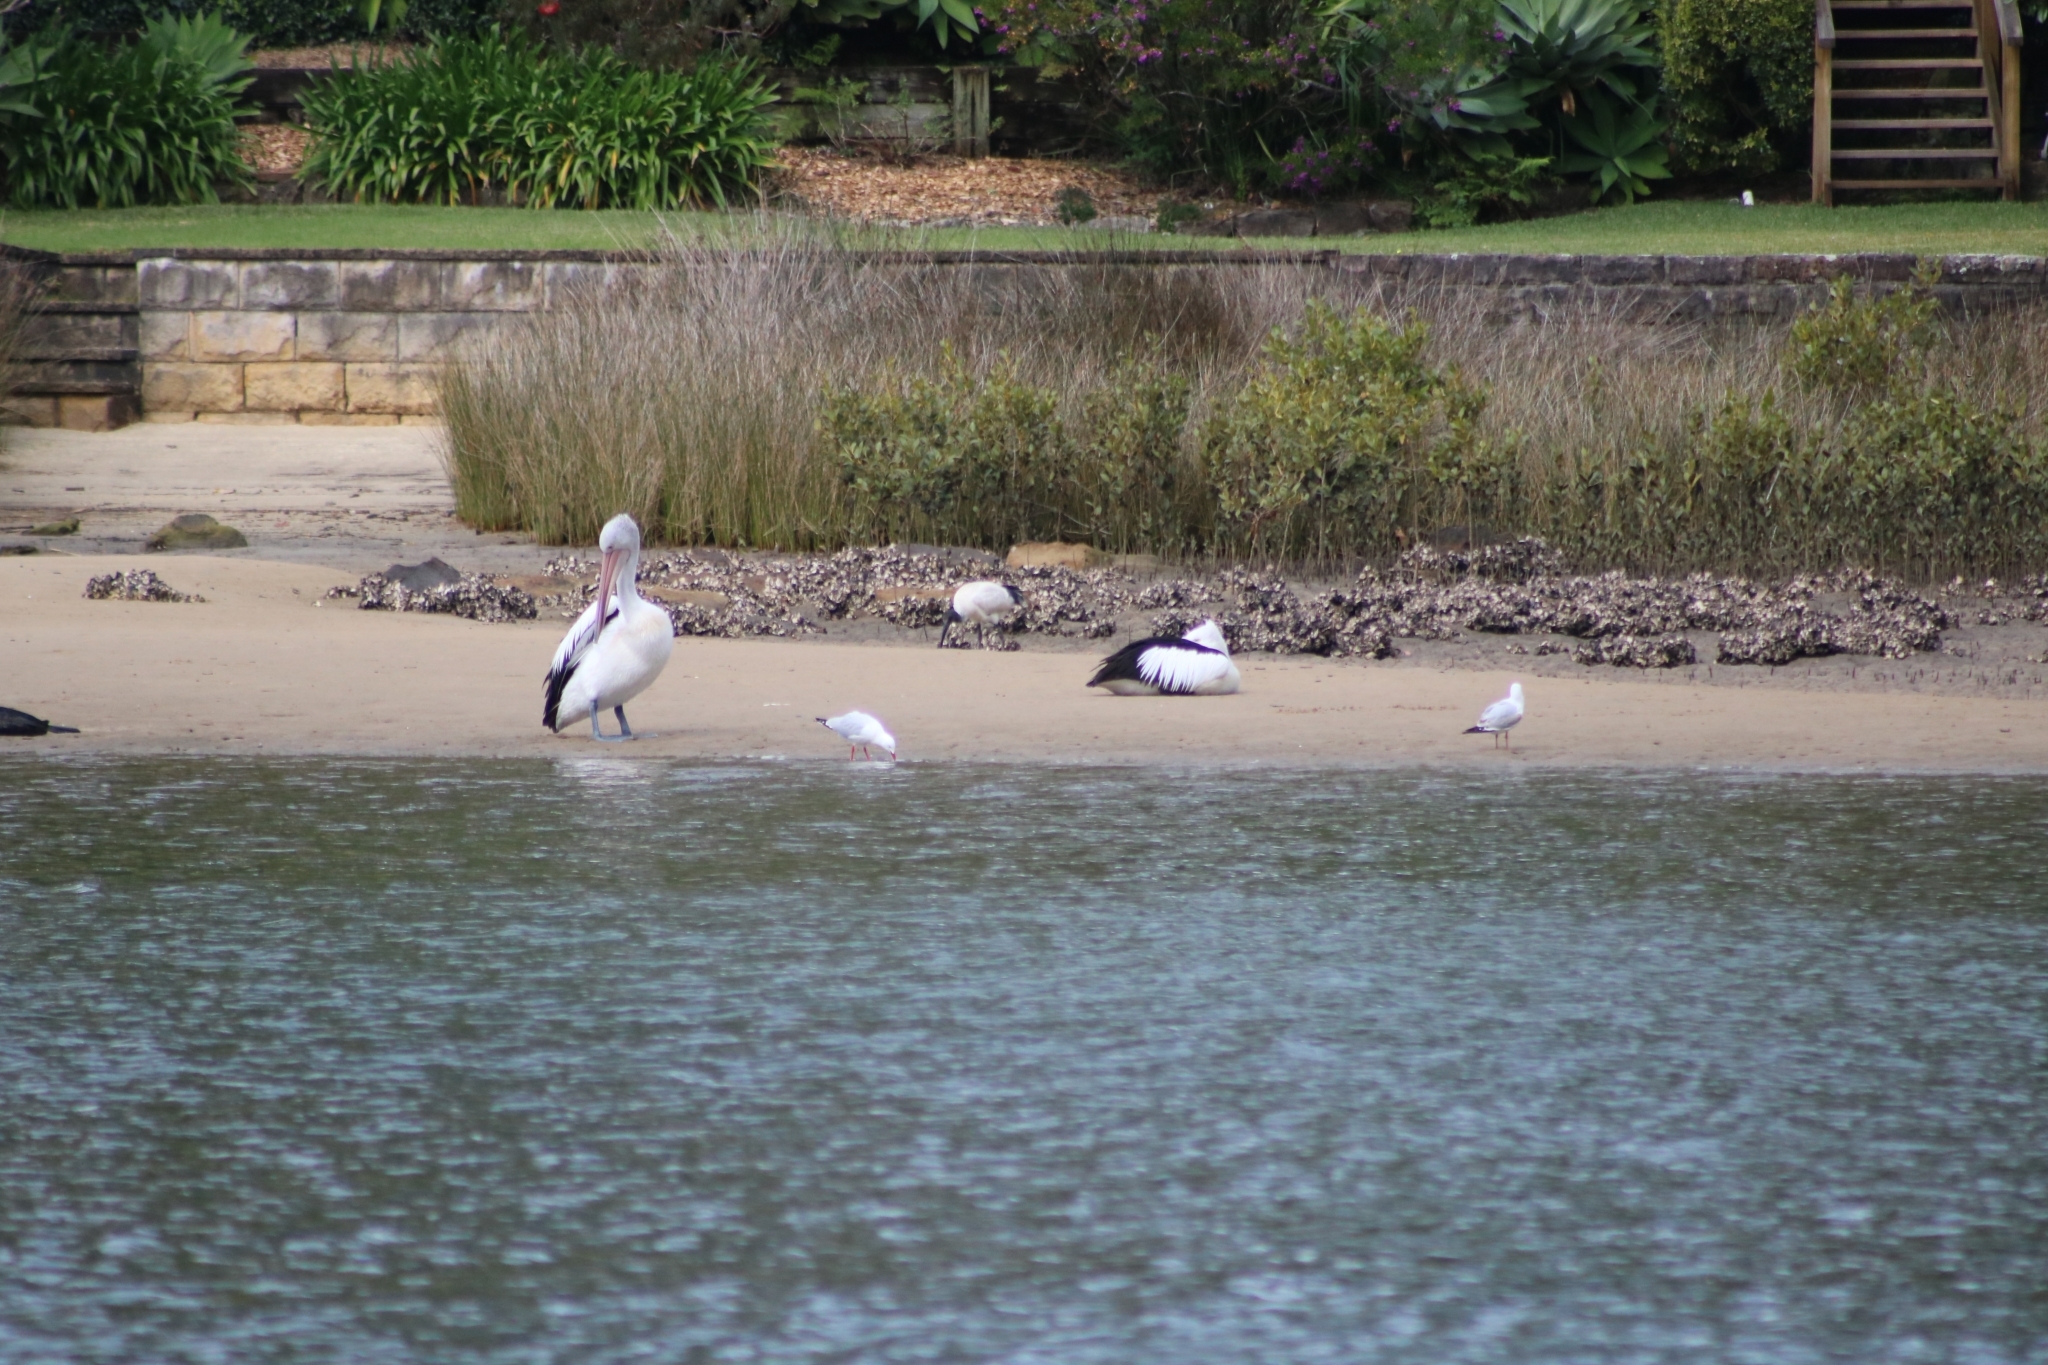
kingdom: Animalia
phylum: Chordata
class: Aves
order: Pelecaniformes
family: Threskiornithidae
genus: Threskiornis
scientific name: Threskiornis molucca
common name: Australian white ibis
